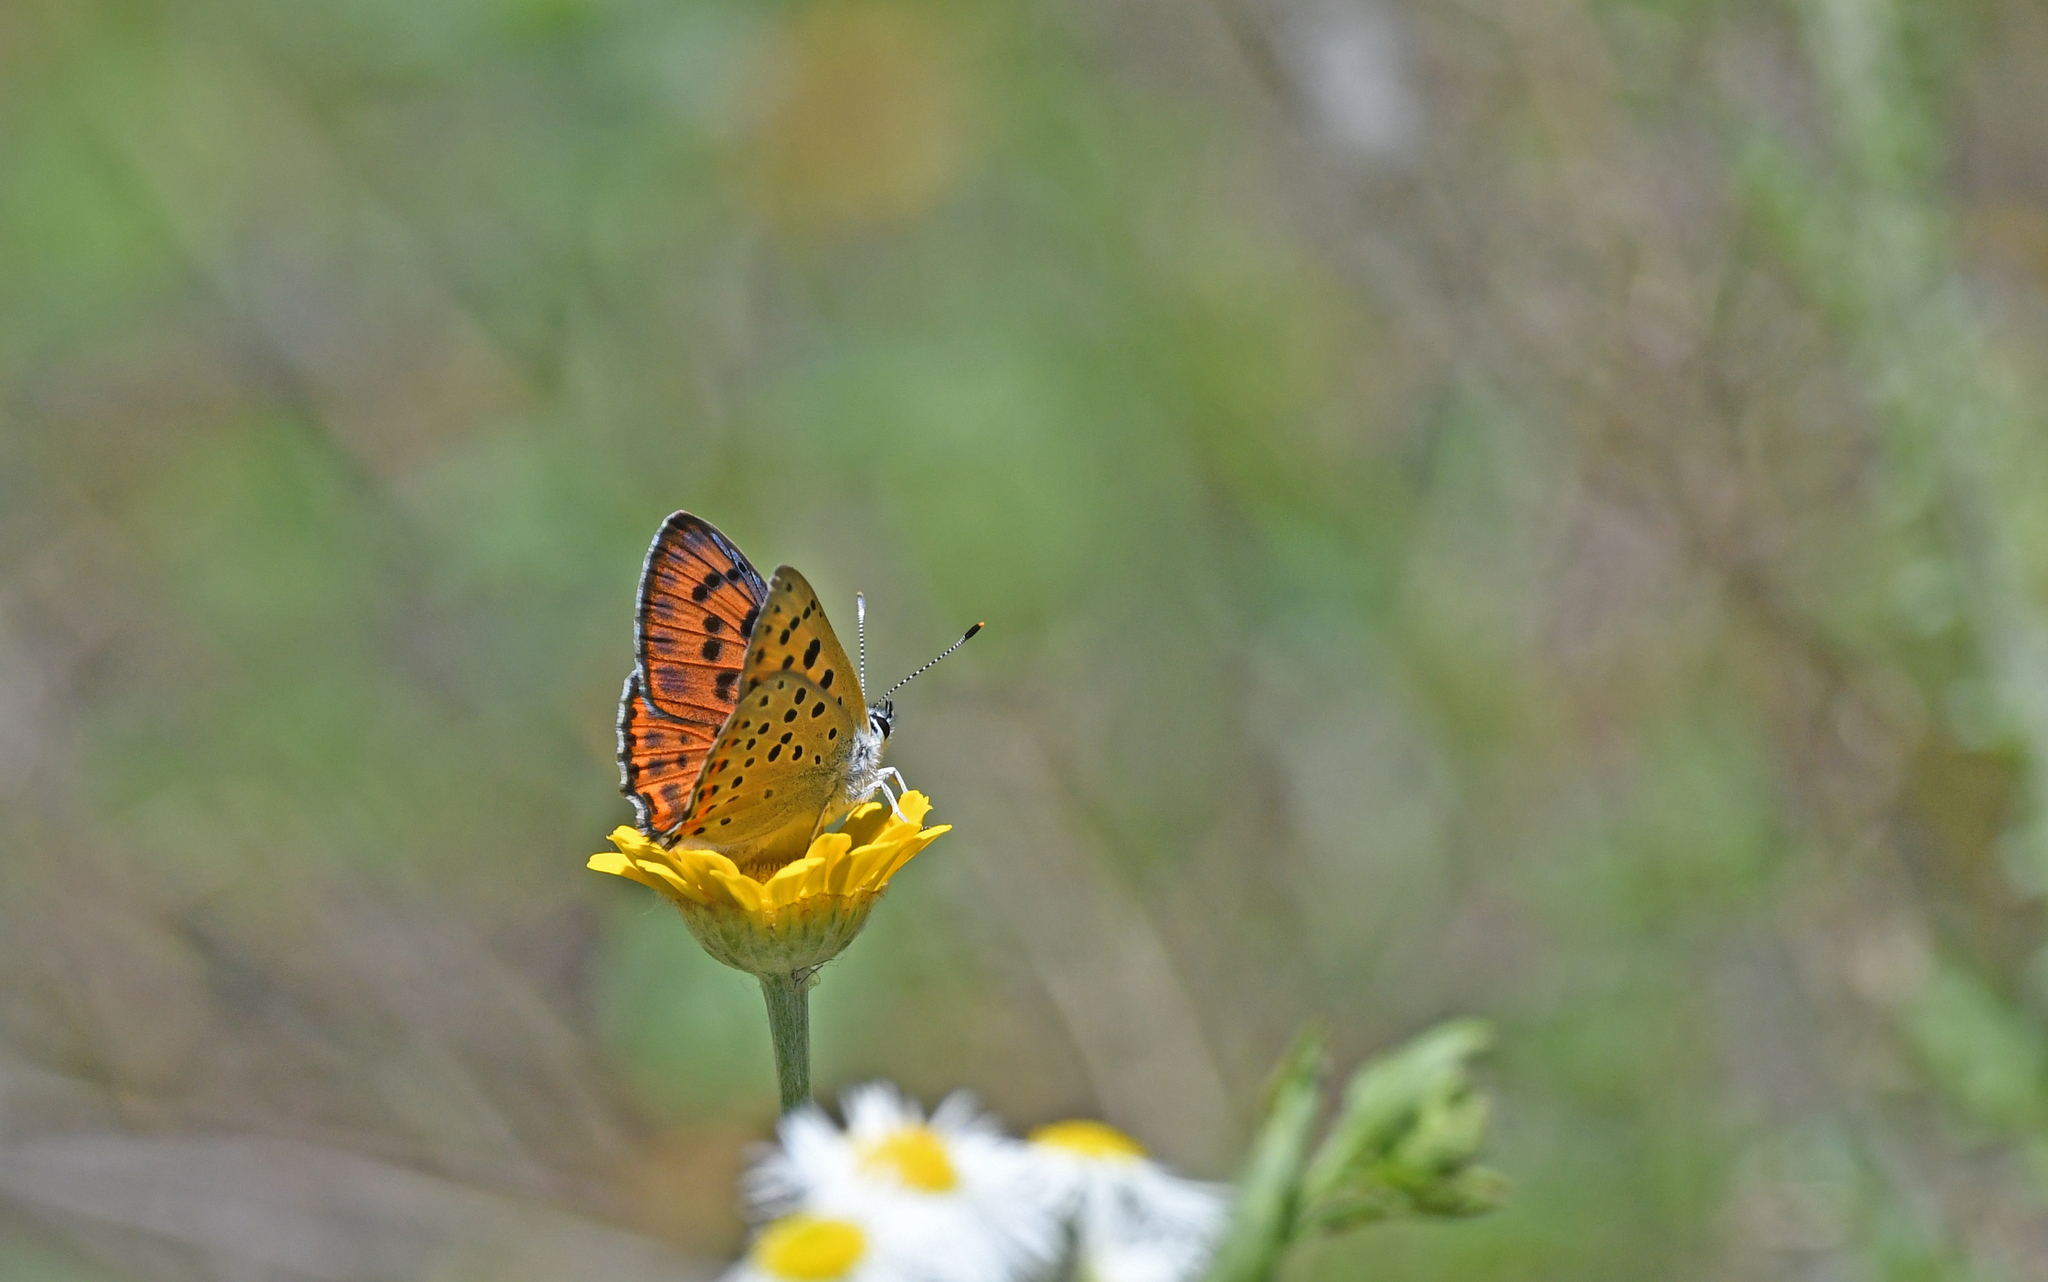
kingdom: Animalia
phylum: Arthropoda
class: Insecta
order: Lepidoptera
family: Lycaenidae
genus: Lycaena
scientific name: Lycaena alciphron
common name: Purple-shot copper
